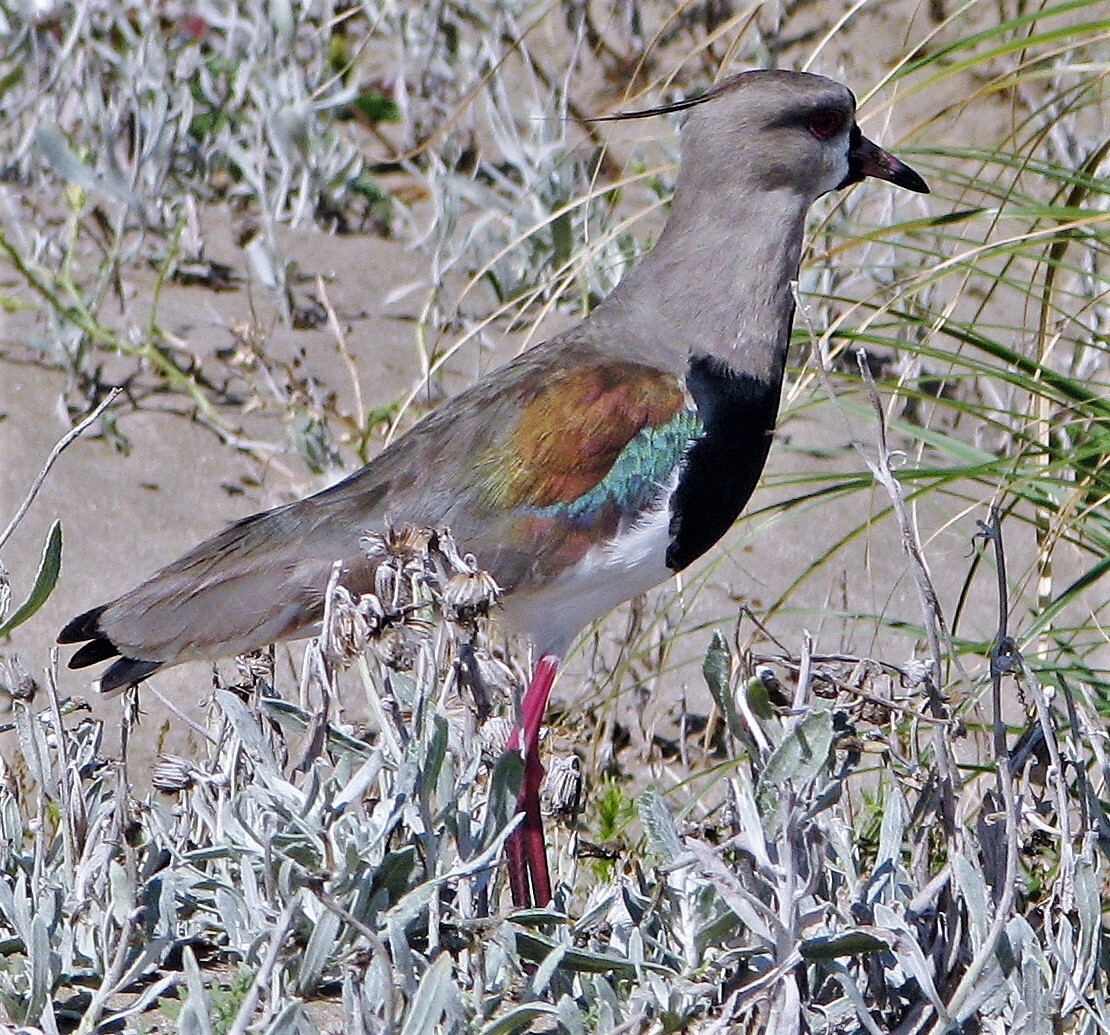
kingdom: Animalia
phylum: Chordata
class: Aves
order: Charadriiformes
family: Charadriidae
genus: Vanellus
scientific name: Vanellus chilensis
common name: Southern lapwing
